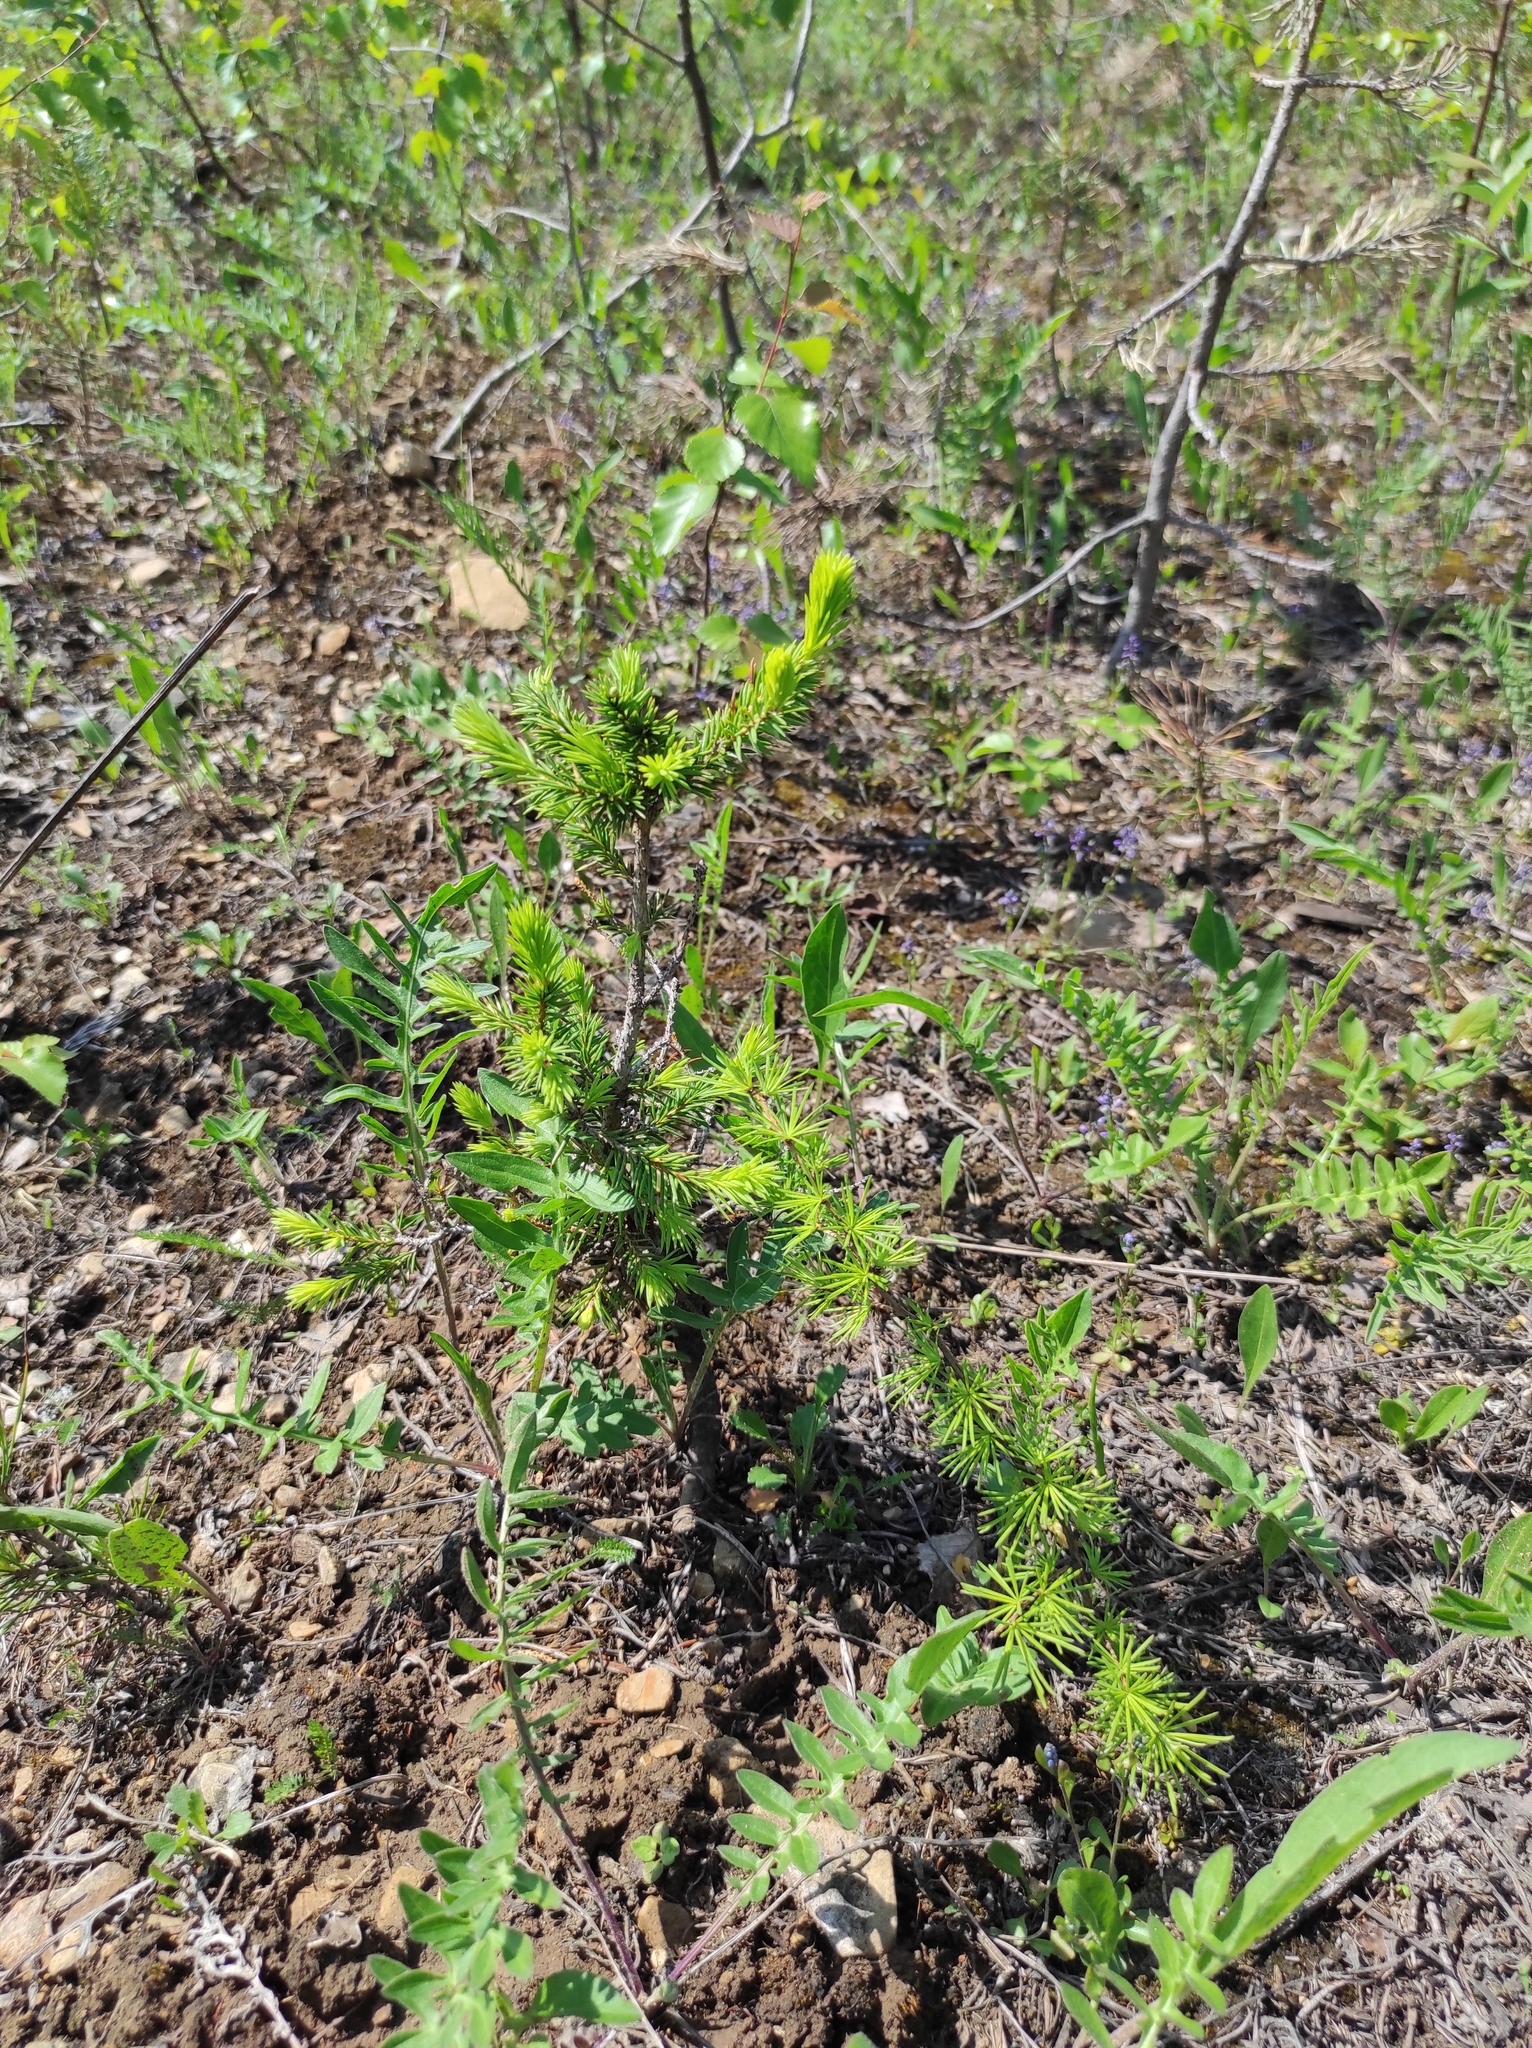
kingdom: Plantae
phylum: Tracheophyta
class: Pinopsida
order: Pinales
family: Pinaceae
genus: Larix
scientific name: Larix gmelinii
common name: Dahurian larch
